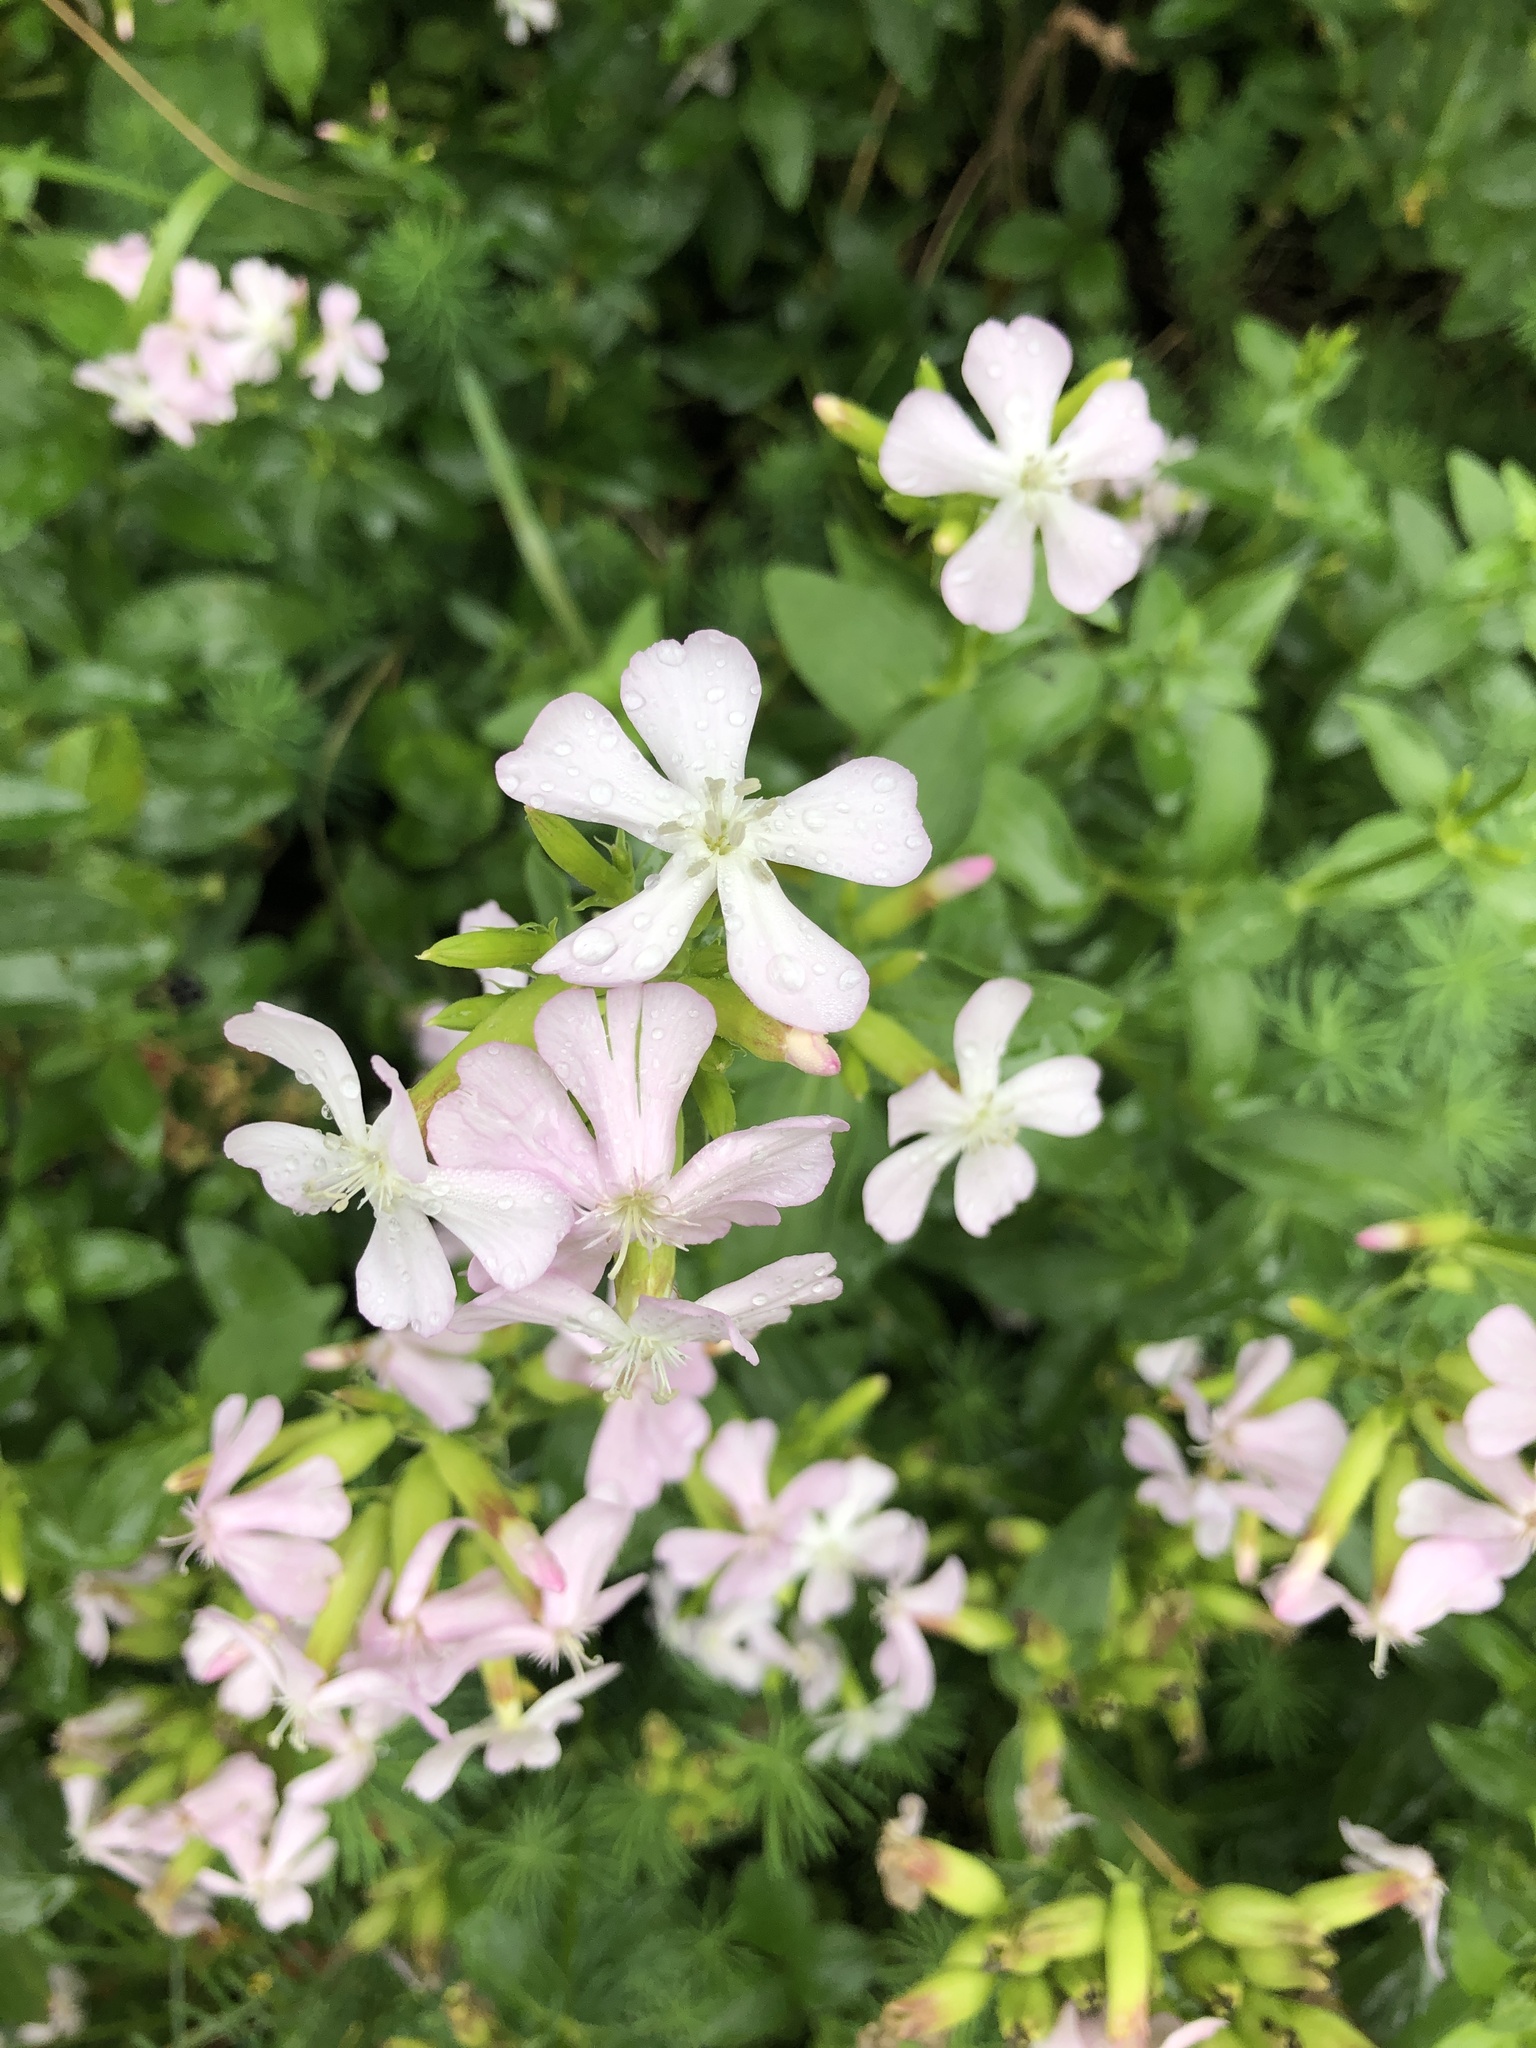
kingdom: Plantae
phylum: Tracheophyta
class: Magnoliopsida
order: Caryophyllales
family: Caryophyllaceae
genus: Saponaria
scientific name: Saponaria officinalis
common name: Soapwort
